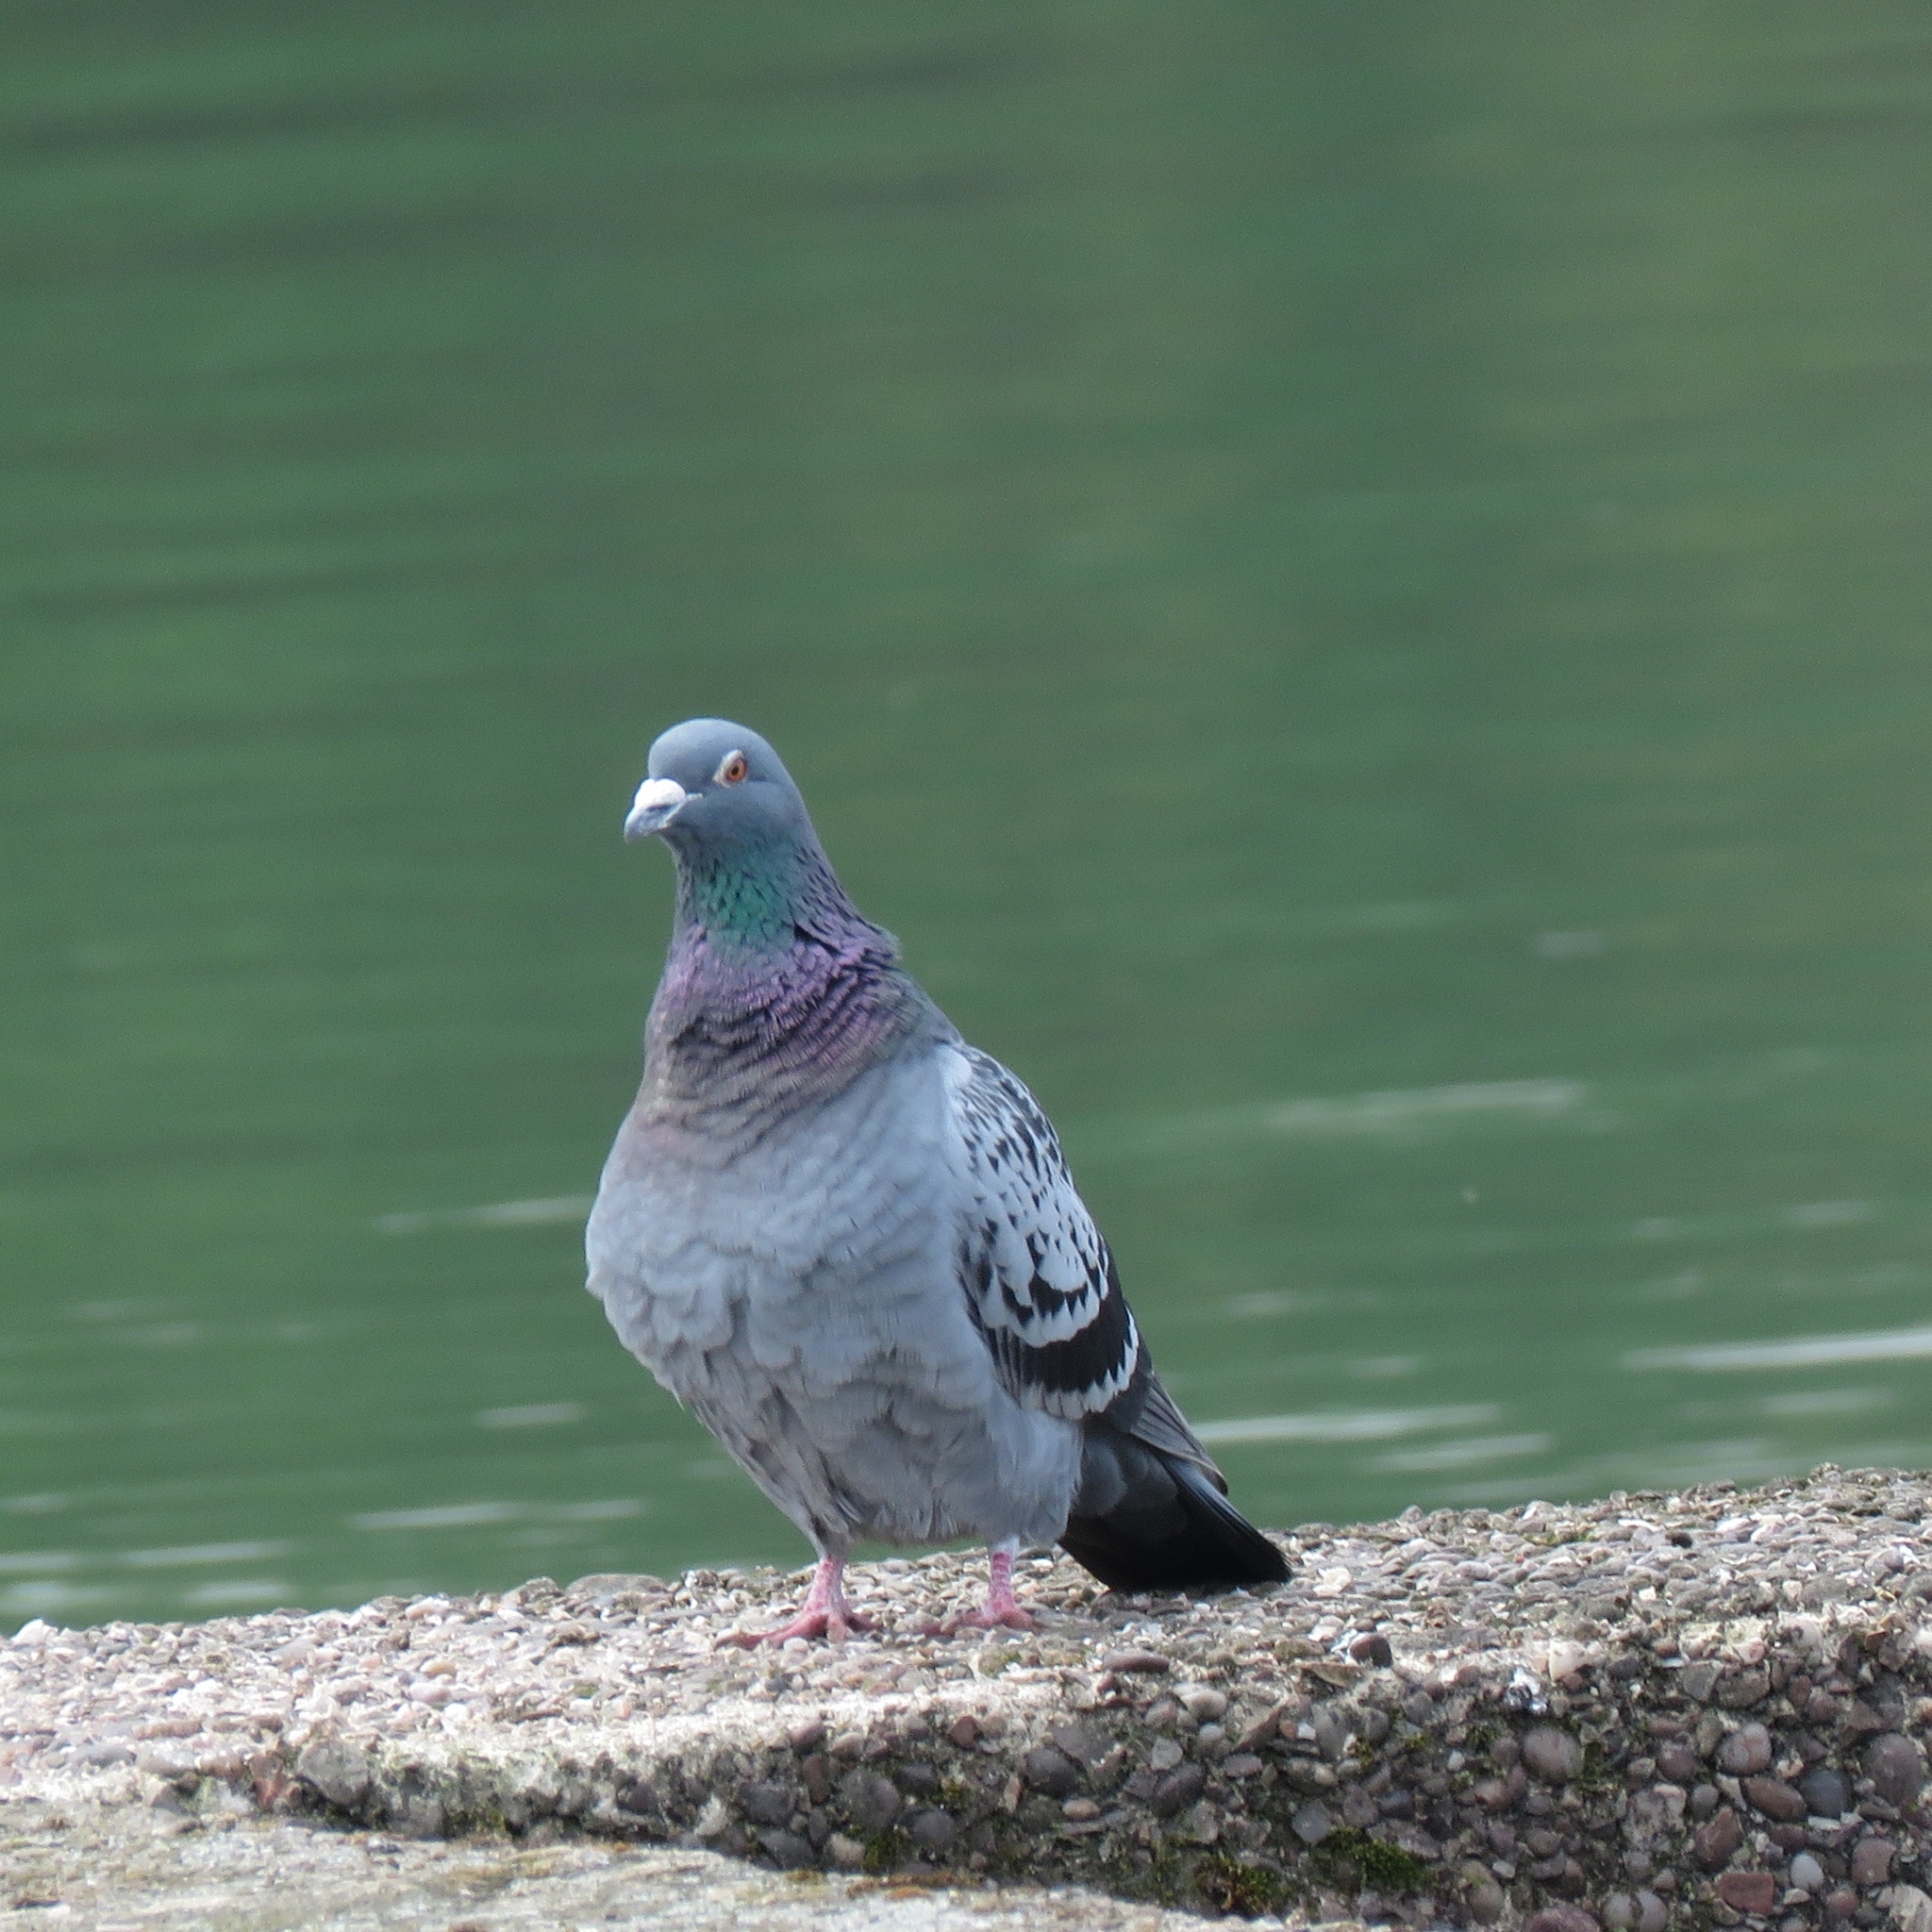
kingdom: Animalia
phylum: Chordata
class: Aves
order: Columbiformes
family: Columbidae
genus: Columba
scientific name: Columba livia
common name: Rock pigeon
